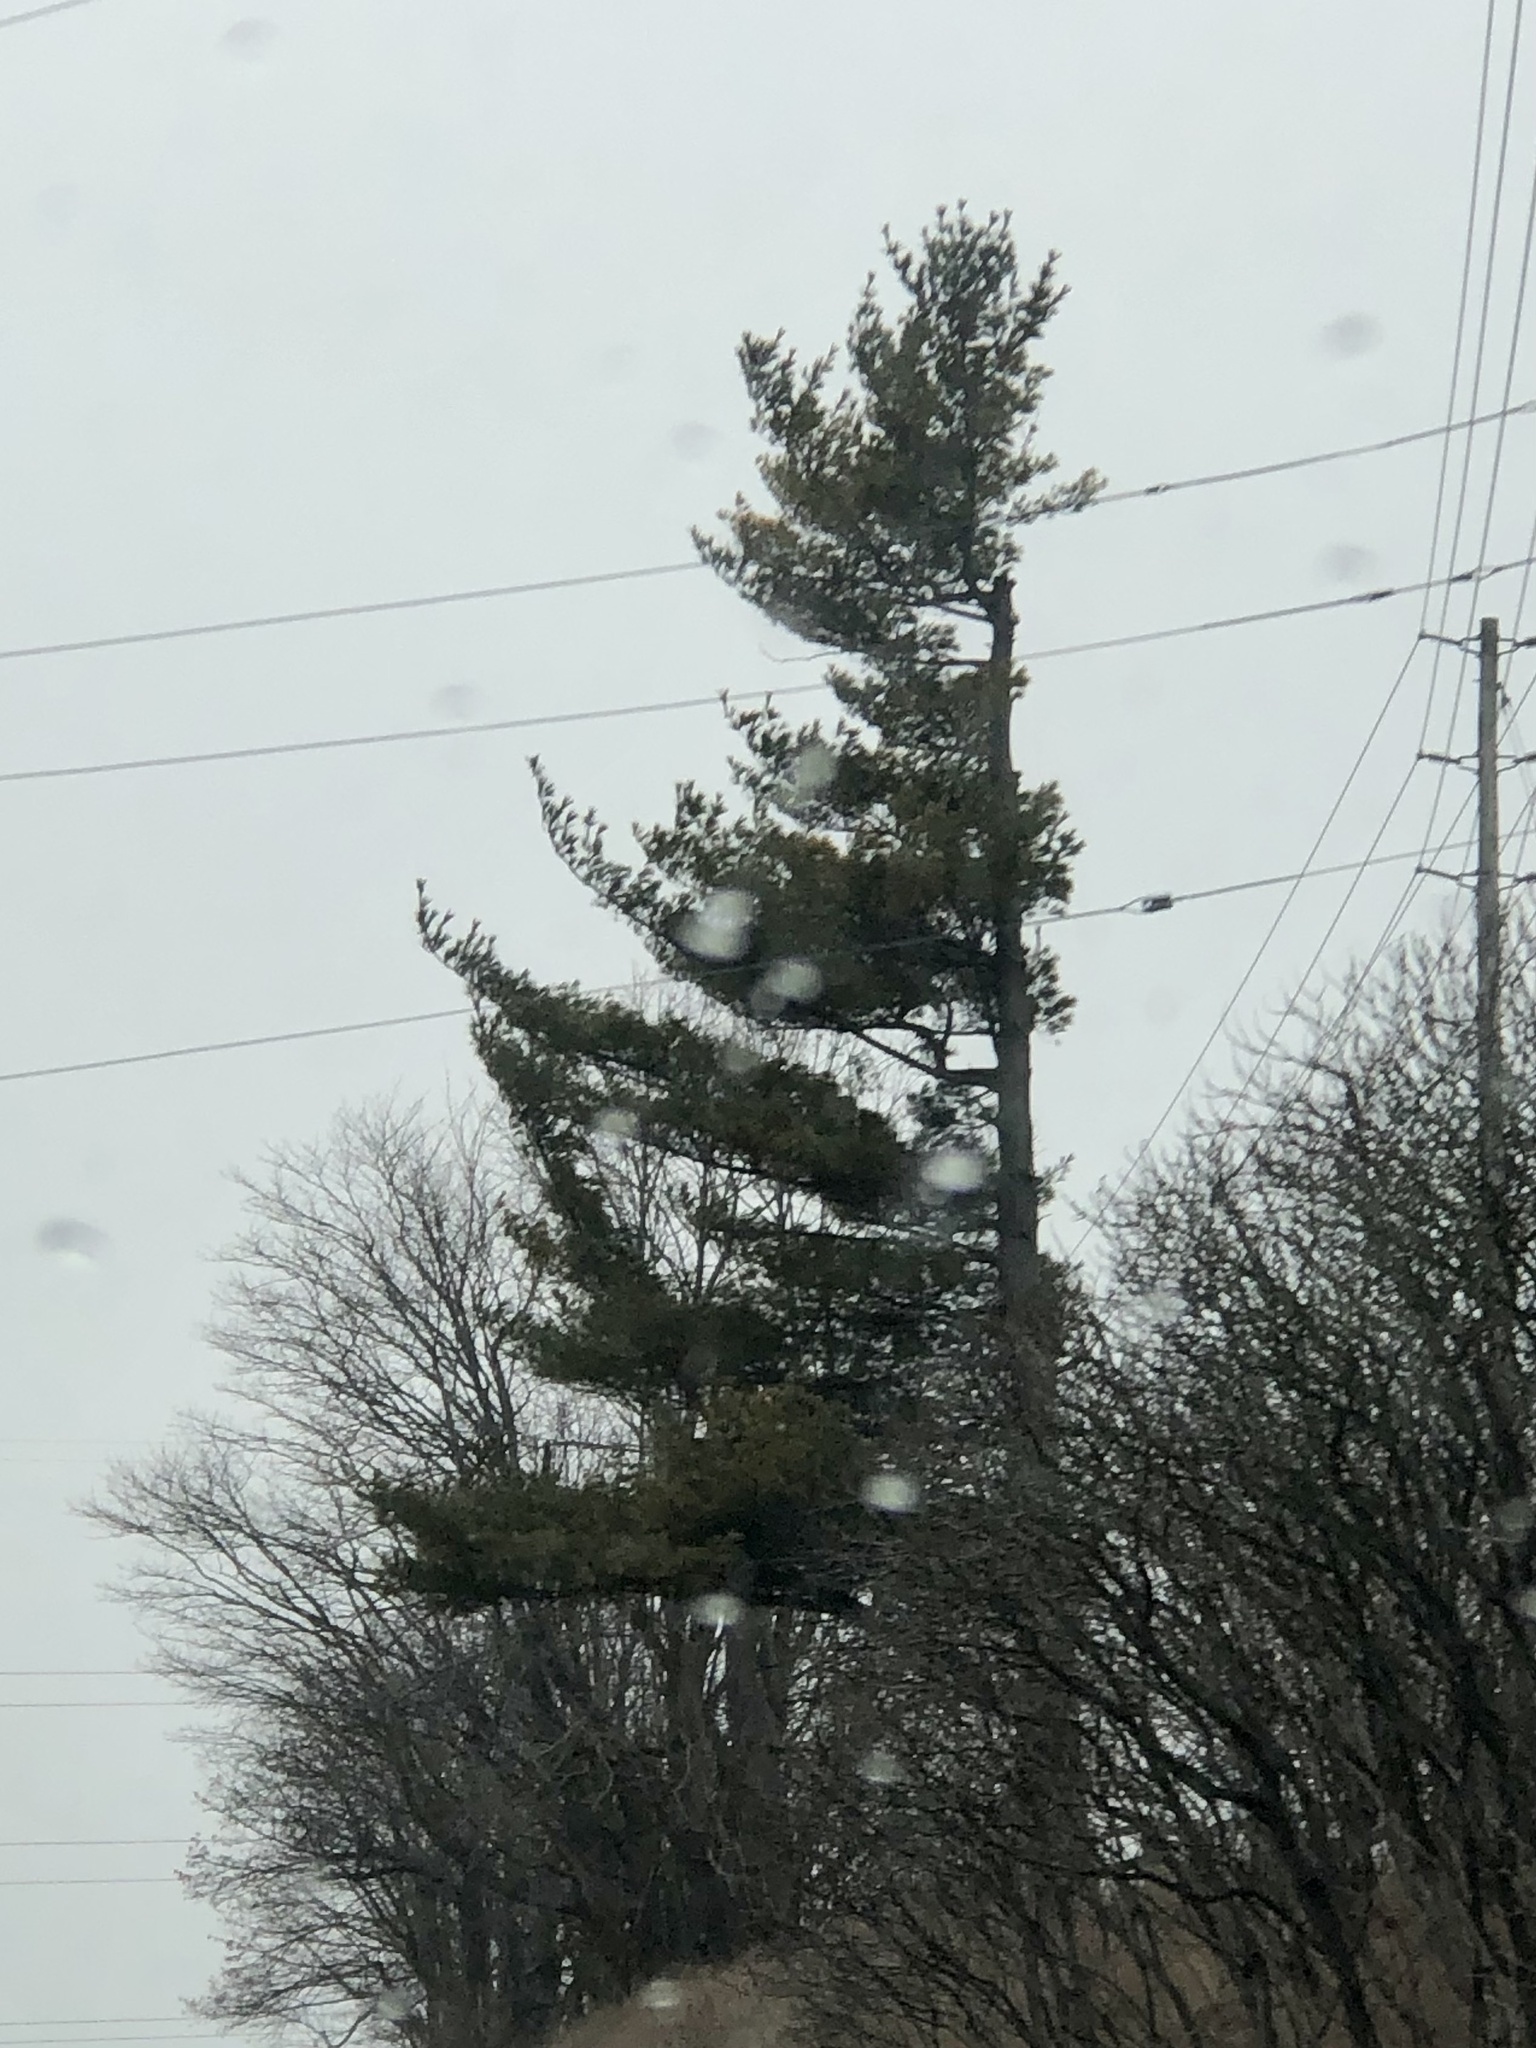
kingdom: Plantae
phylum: Tracheophyta
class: Pinopsida
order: Pinales
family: Pinaceae
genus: Pinus
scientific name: Pinus strobus
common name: Weymouth pine
